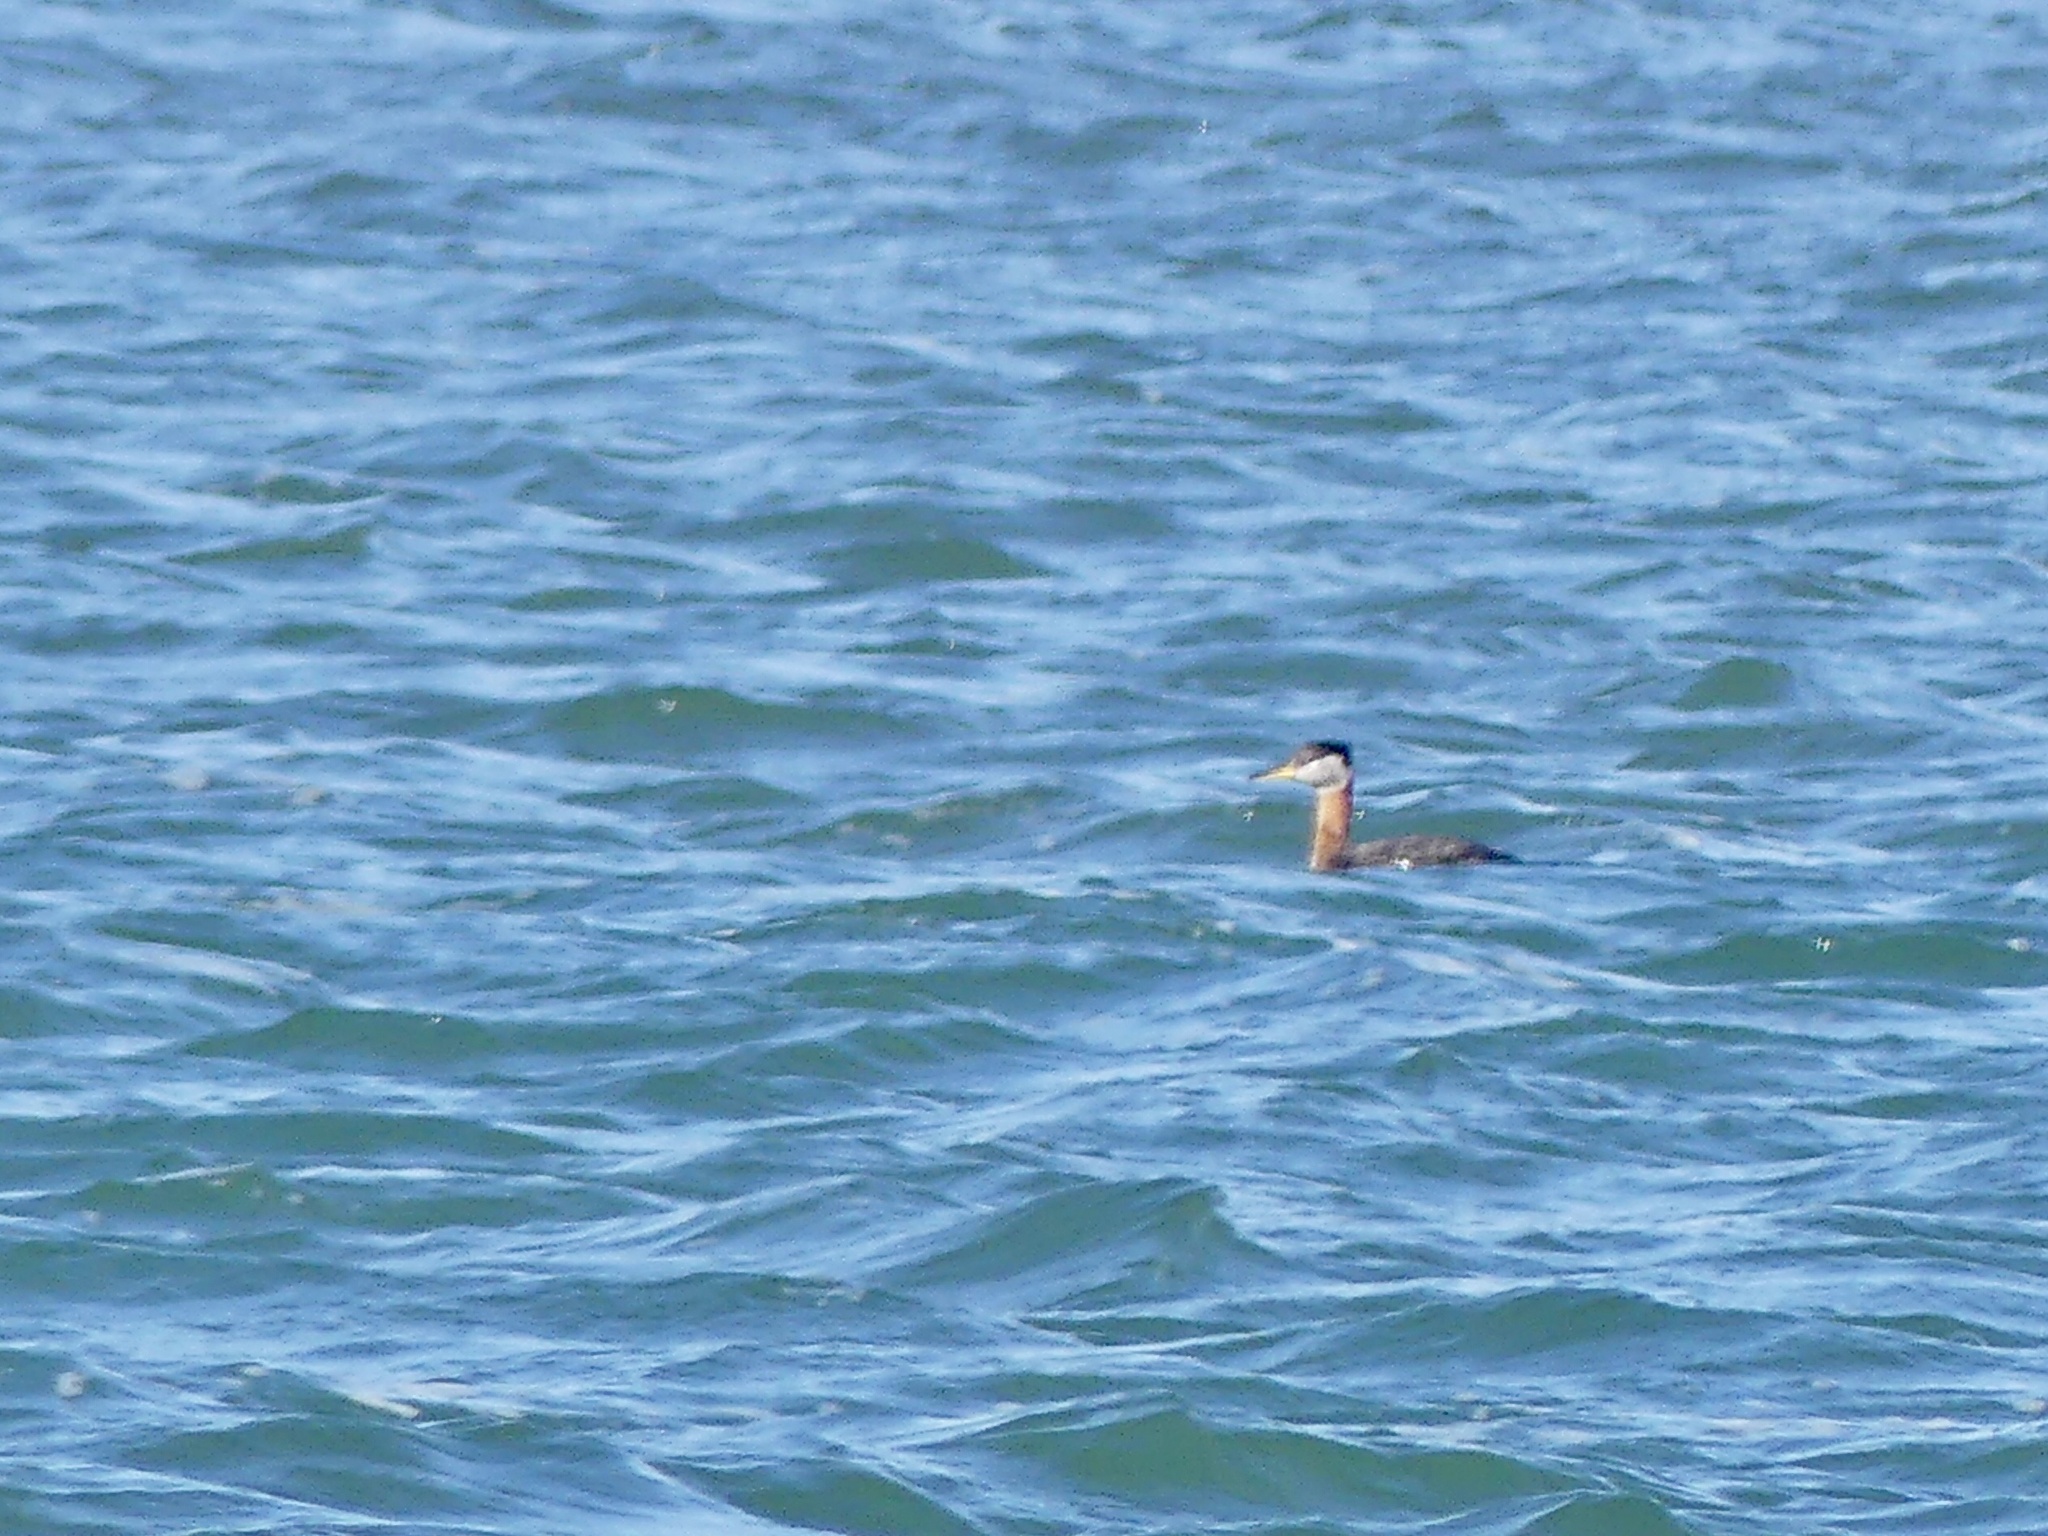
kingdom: Animalia
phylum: Chordata
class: Aves
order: Podicipediformes
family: Podicipedidae
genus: Podiceps
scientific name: Podiceps grisegena
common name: Red-necked grebe
